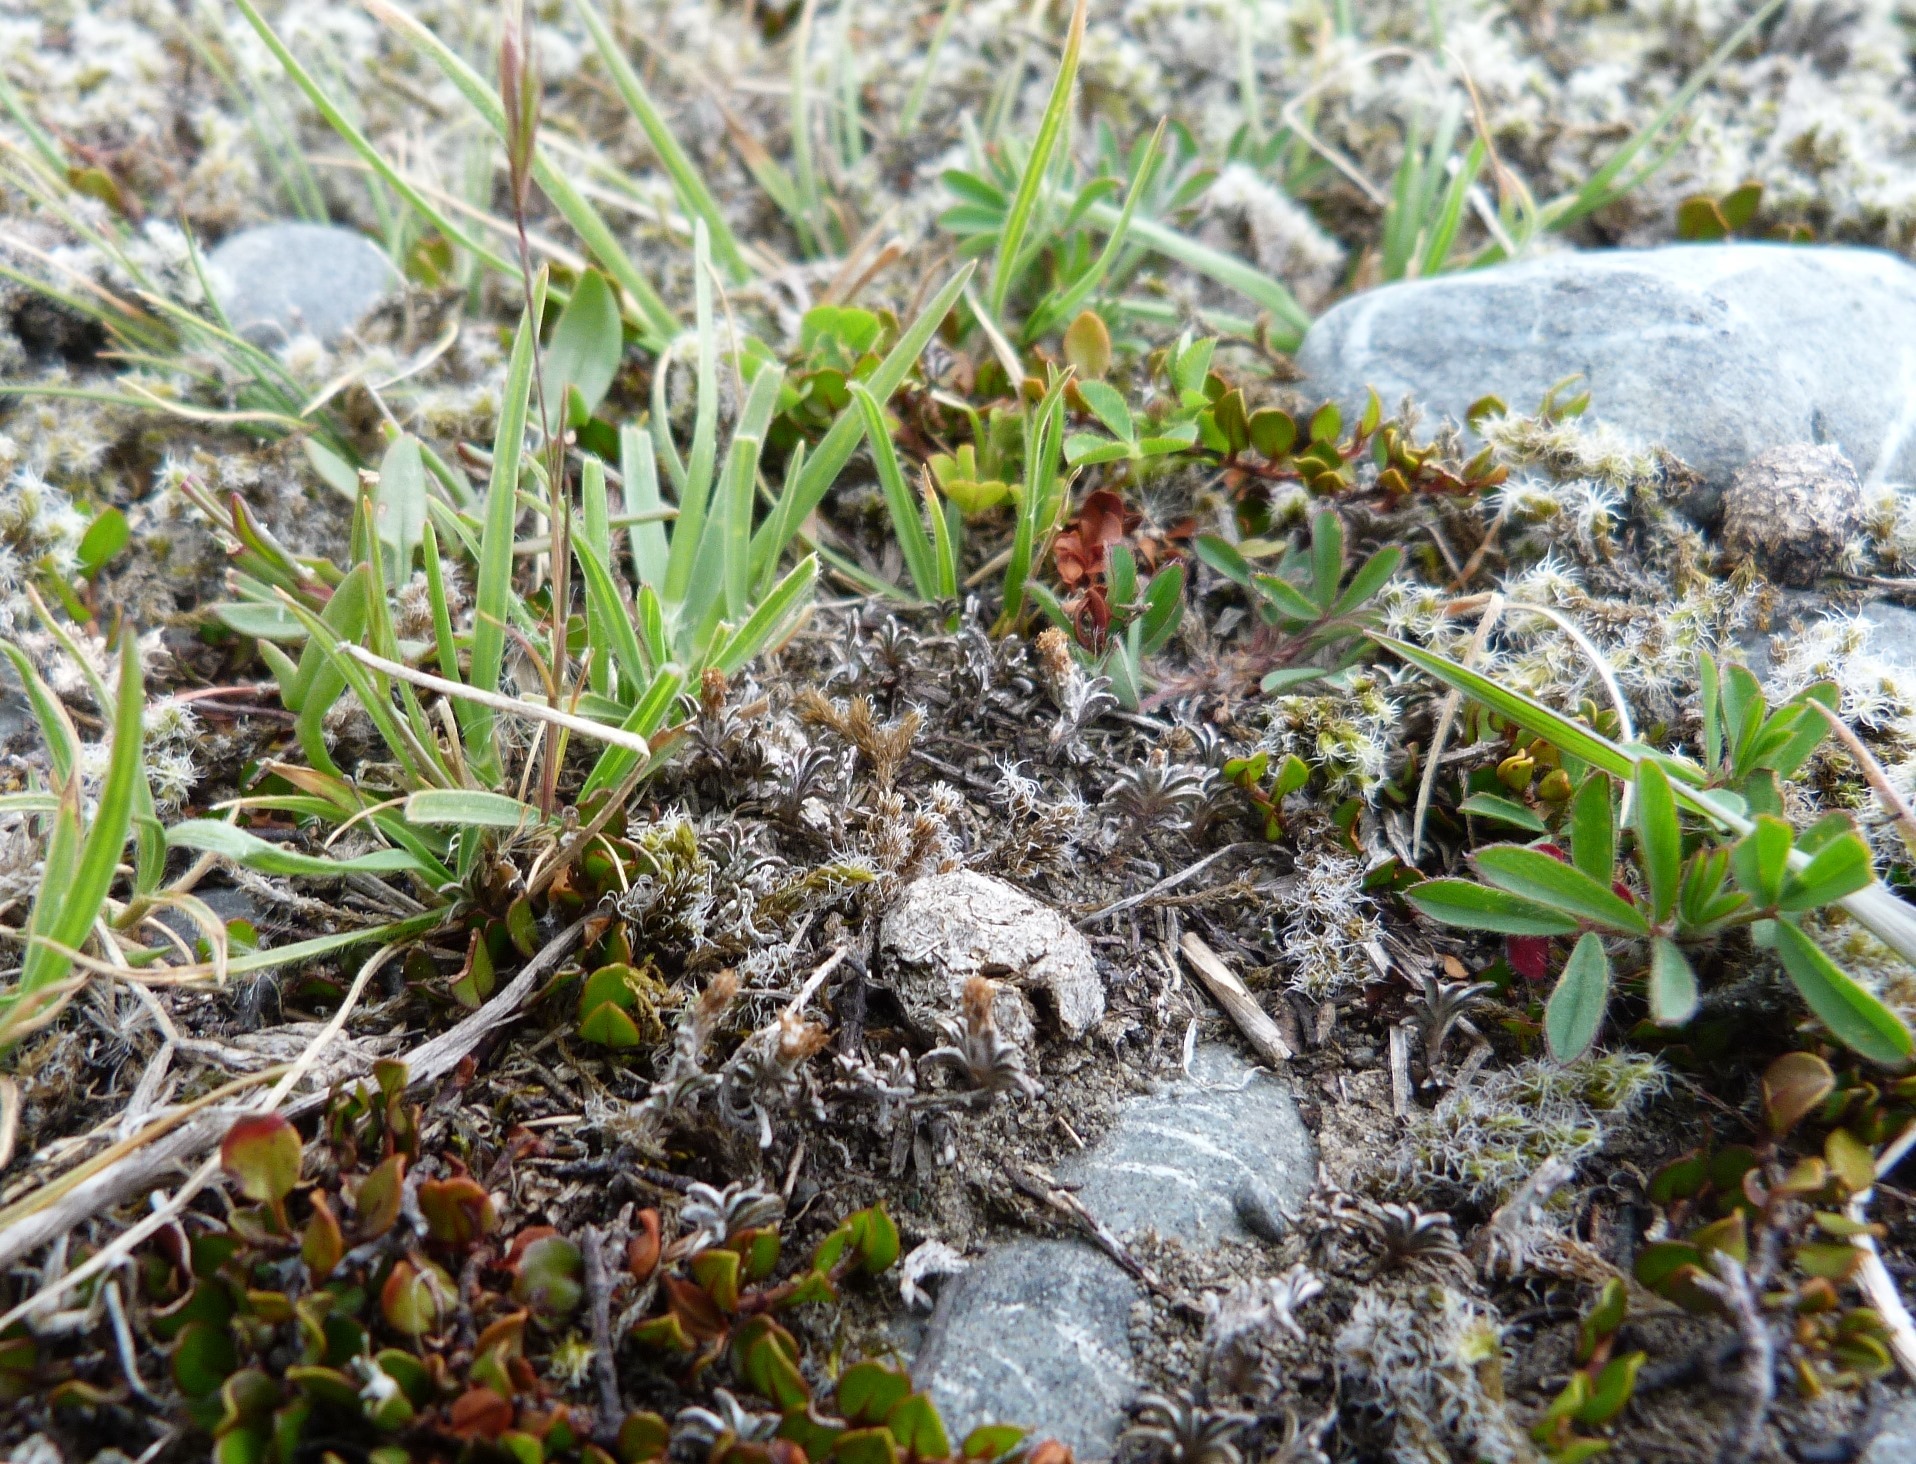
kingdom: Plantae
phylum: Tracheophyta
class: Magnoliopsida
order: Asterales
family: Asteraceae
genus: Raoulia
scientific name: Raoulia monroi
